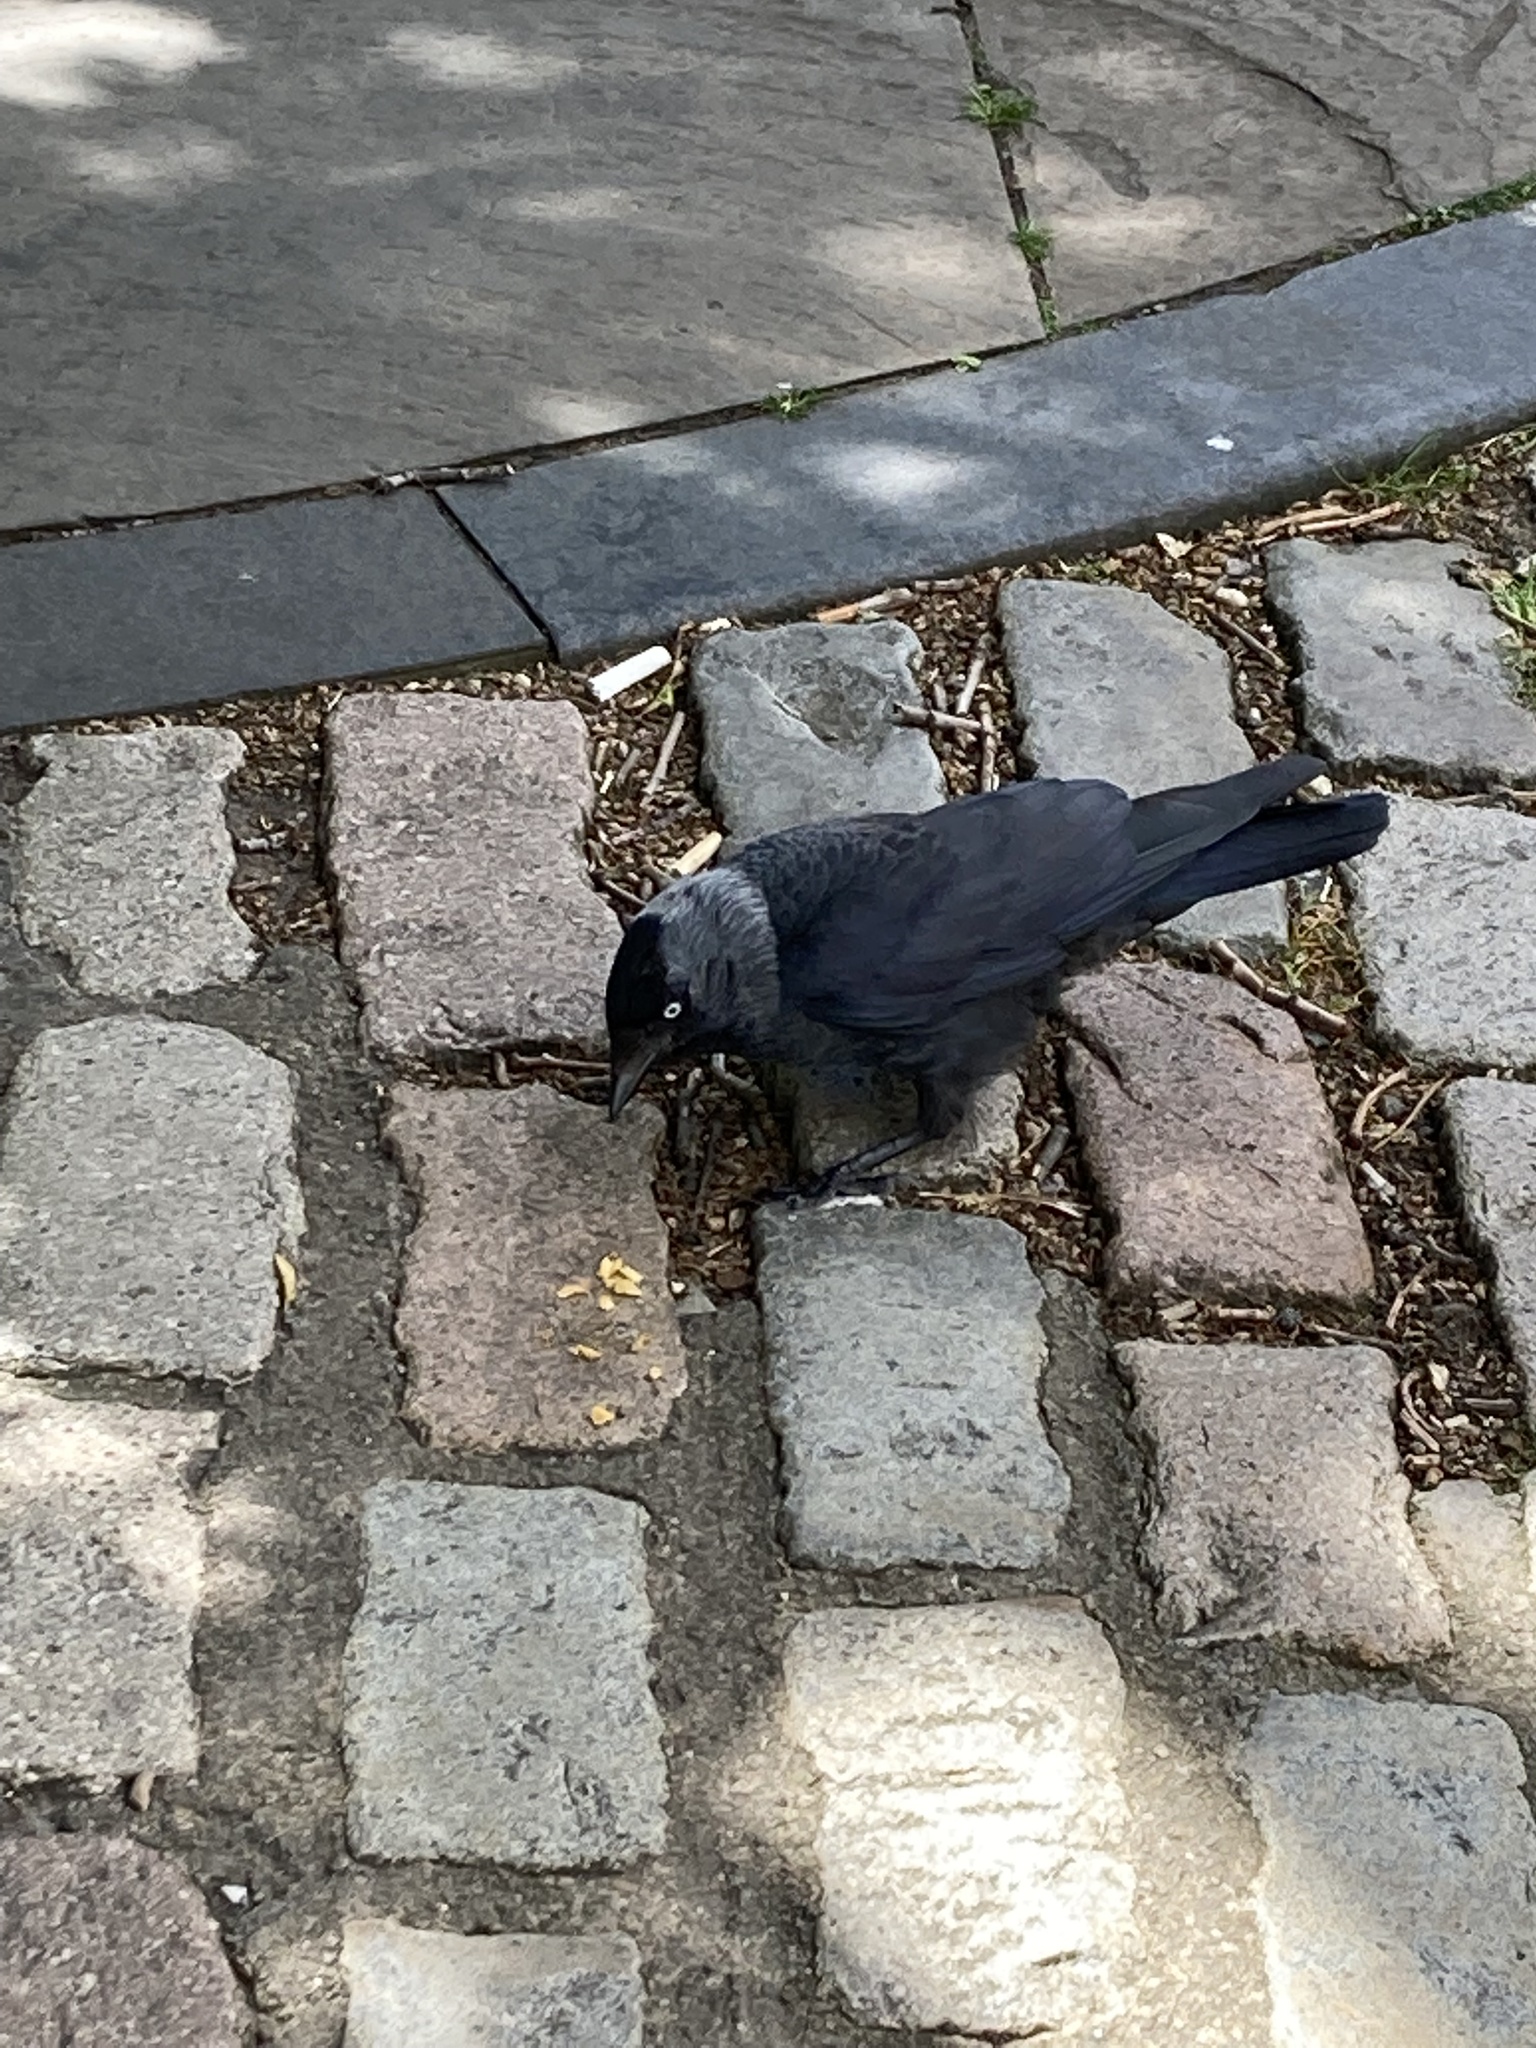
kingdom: Animalia
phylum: Chordata
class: Aves
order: Passeriformes
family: Corvidae
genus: Coloeus
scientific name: Coloeus monedula
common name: Western jackdaw
